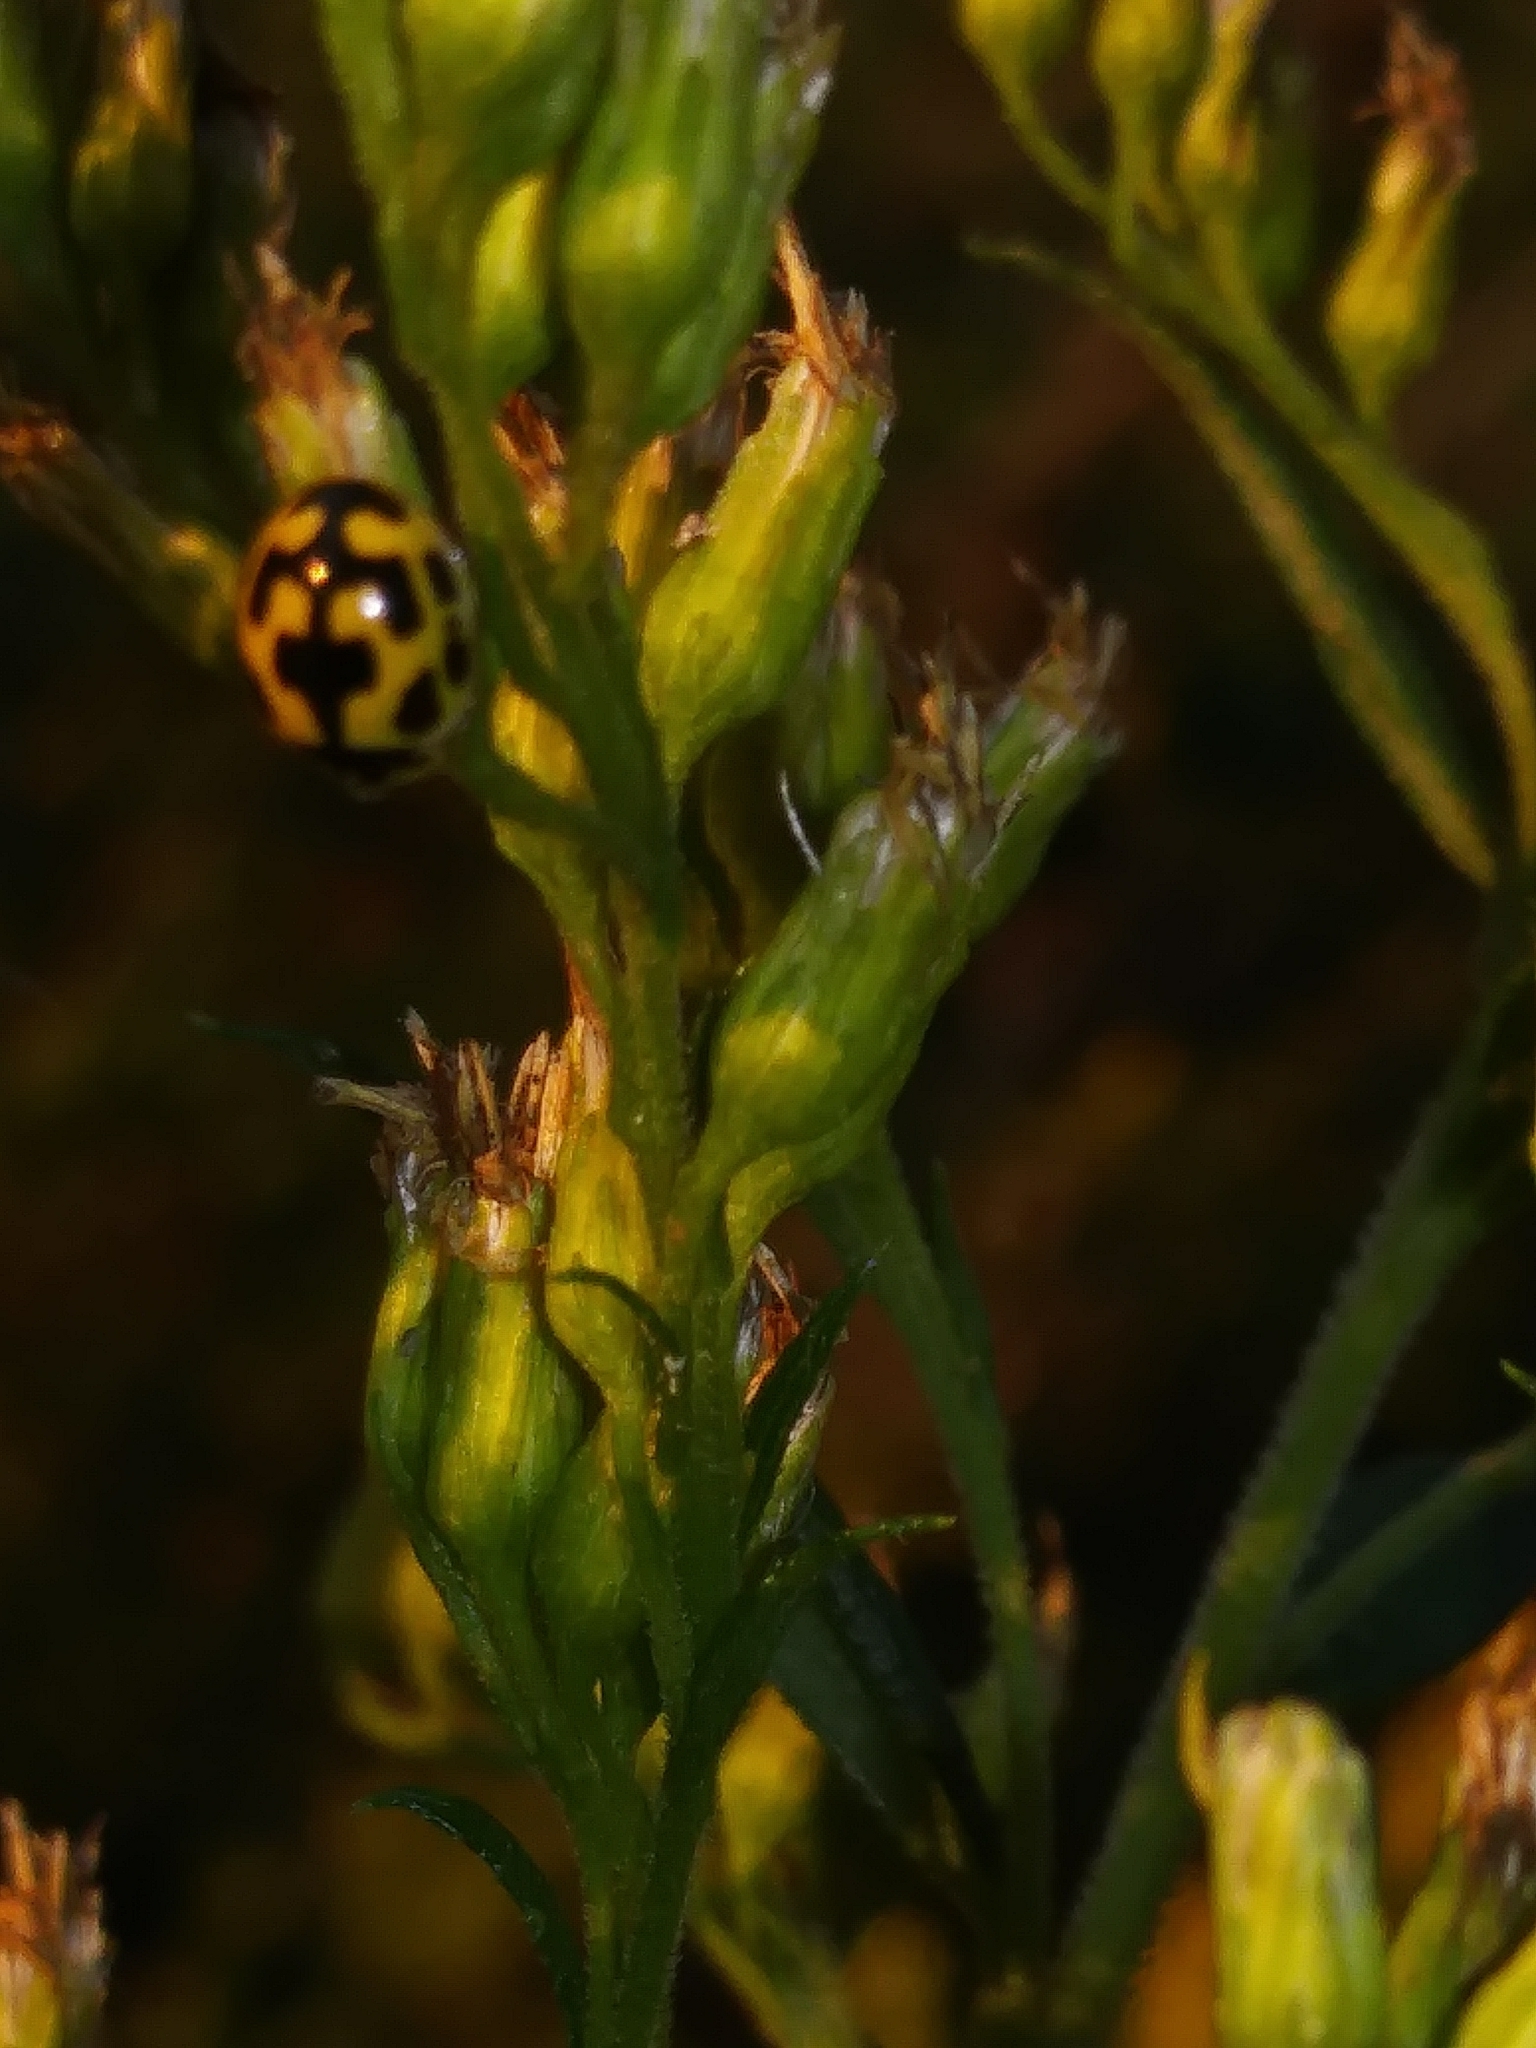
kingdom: Animalia
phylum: Arthropoda
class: Insecta
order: Coleoptera
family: Coccinellidae
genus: Propylaea
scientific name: Propylaea quatuordecimpunctata
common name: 14-spotted ladybird beetle
